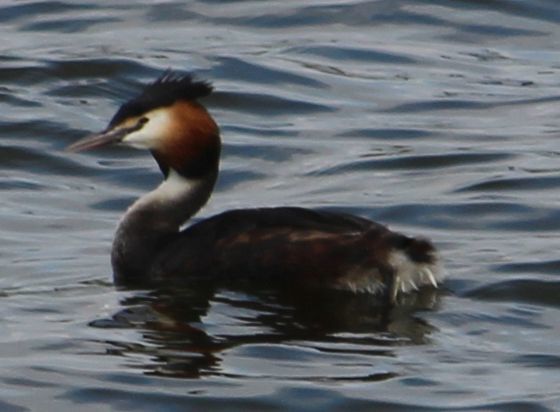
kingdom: Animalia
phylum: Chordata
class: Aves
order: Podicipediformes
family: Podicipedidae
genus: Podiceps
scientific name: Podiceps cristatus
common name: Great crested grebe
